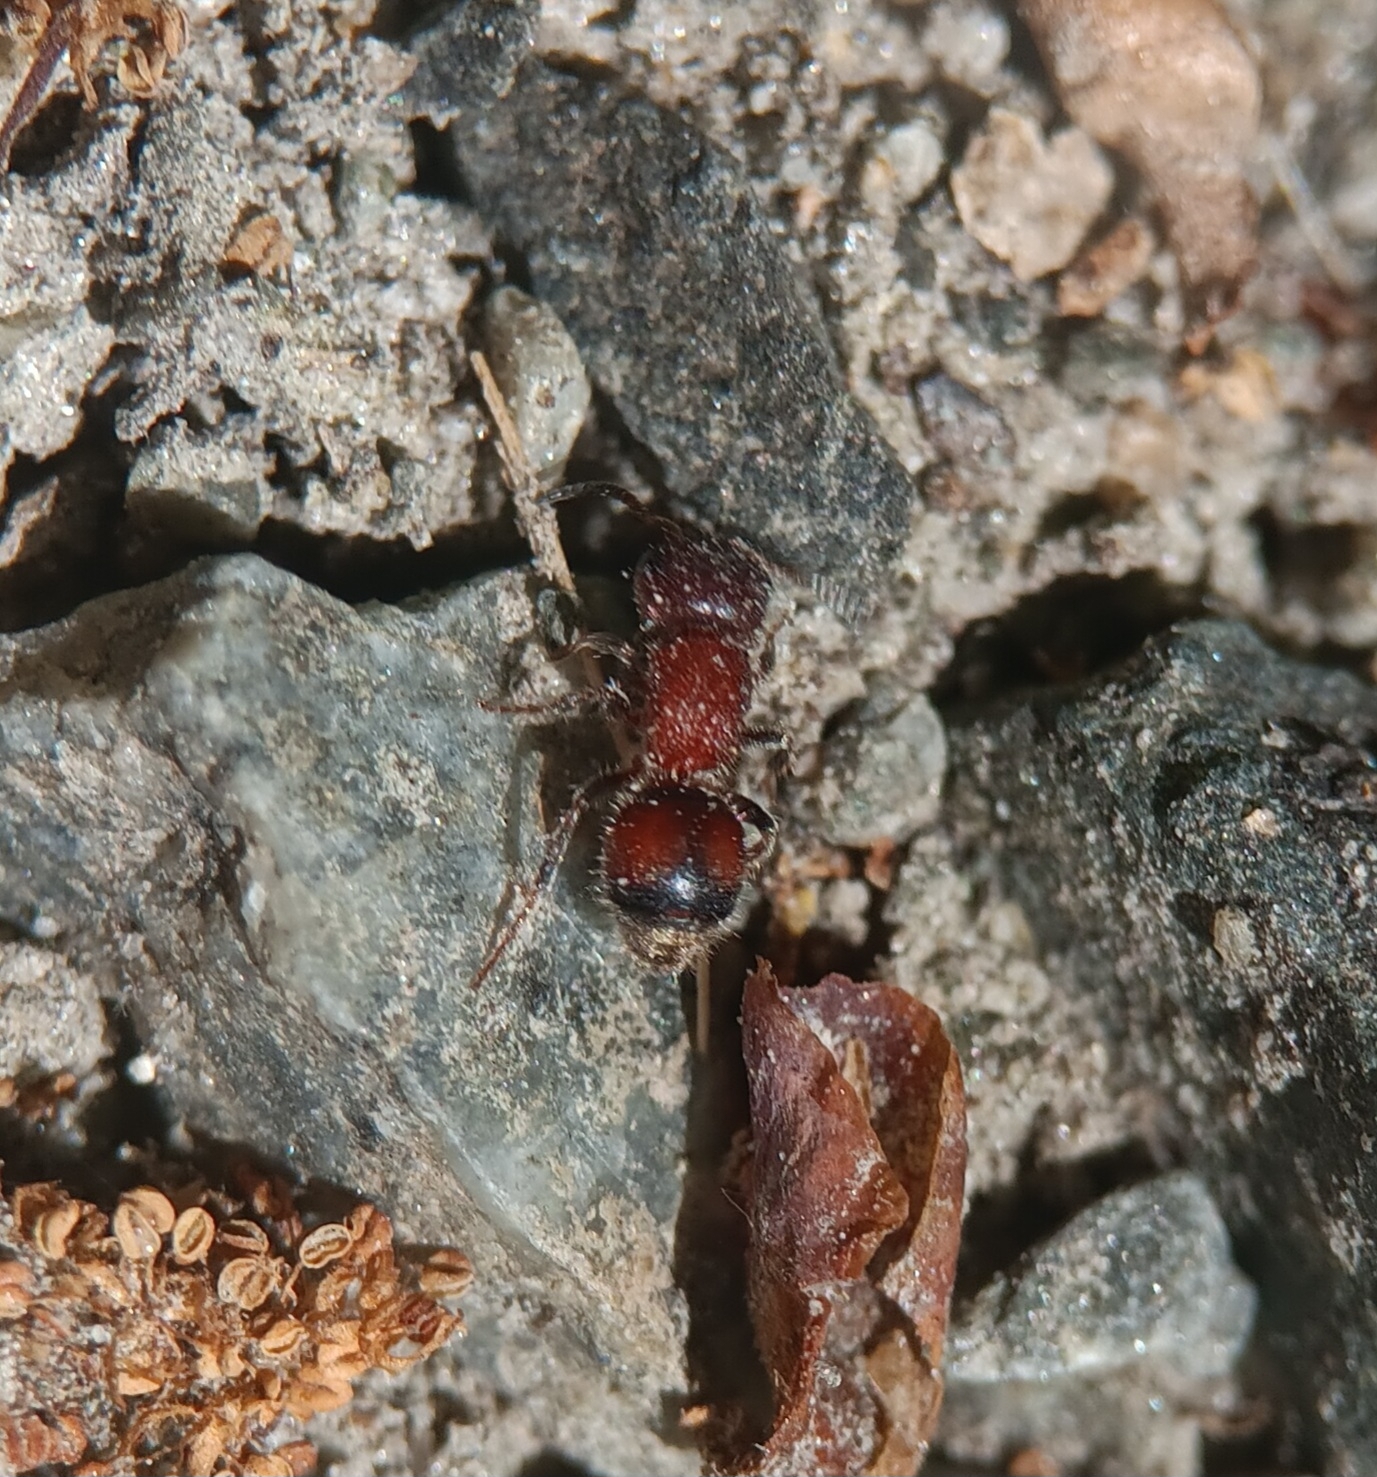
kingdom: Animalia
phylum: Arthropoda
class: Insecta
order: Hymenoptera
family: Mutillidae
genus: Pseudomethoca
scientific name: Pseudomethoca
